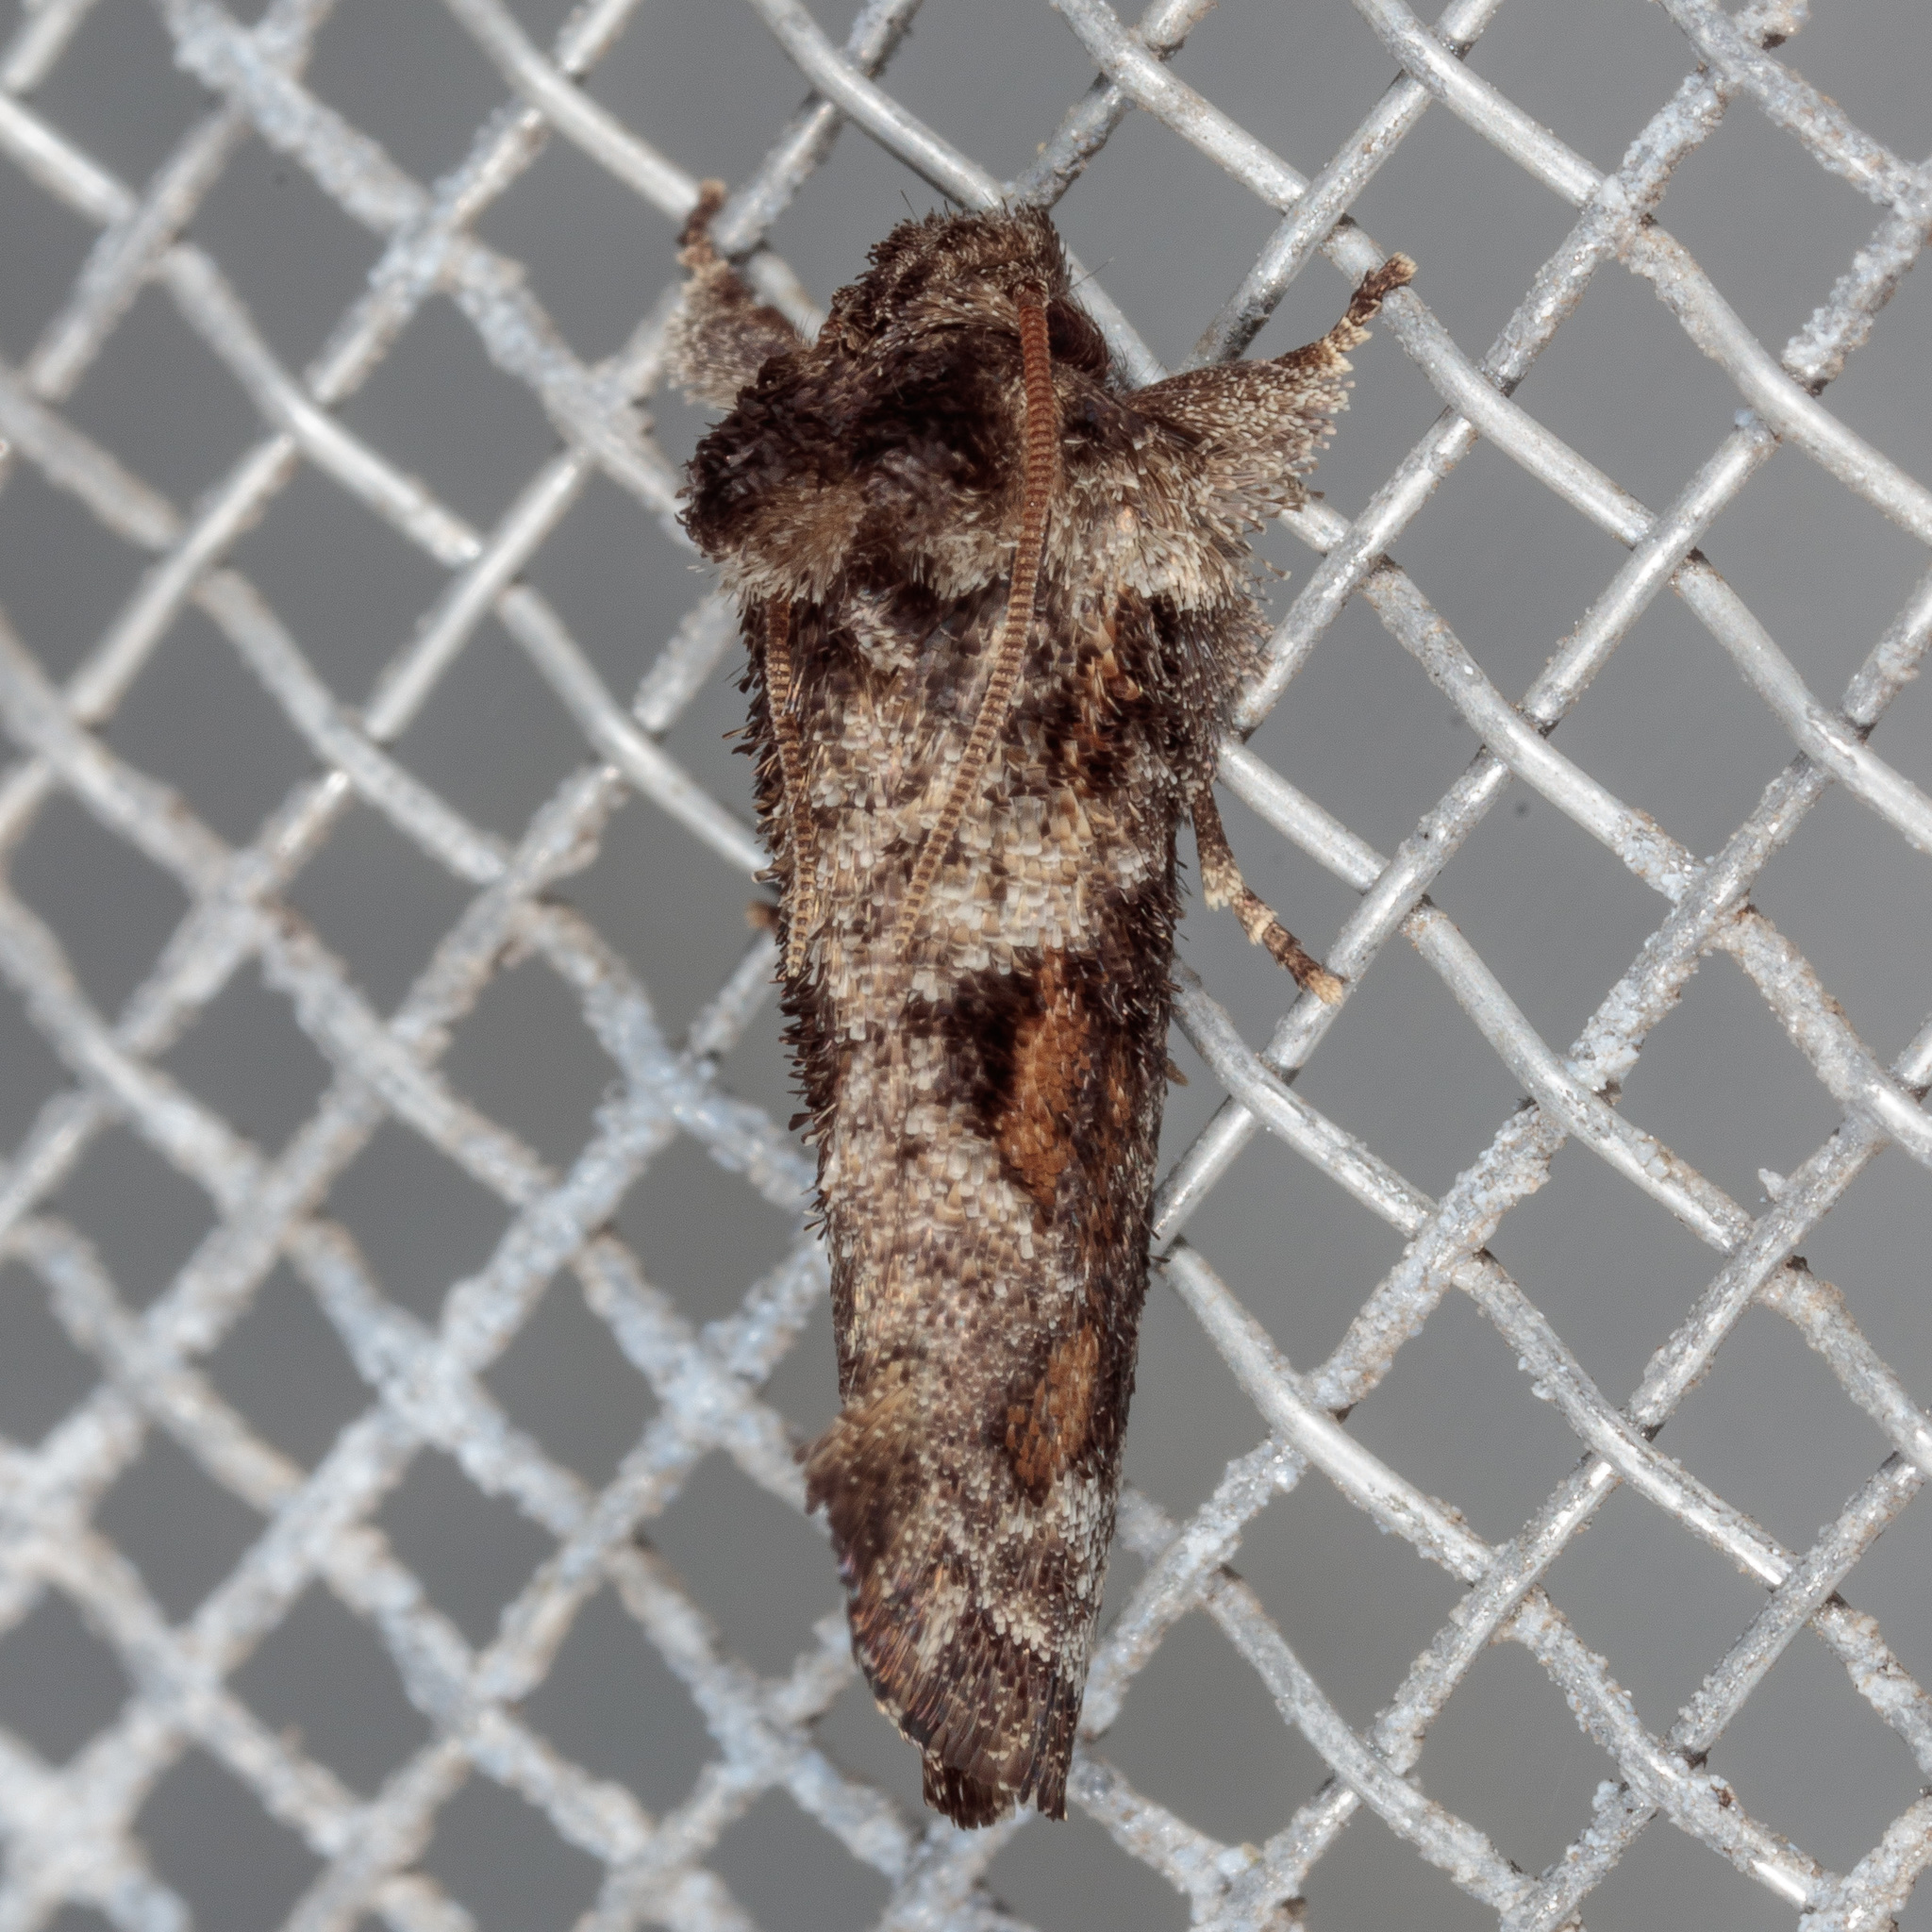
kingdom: Animalia
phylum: Arthropoda
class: Insecta
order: Lepidoptera
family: Tineidae
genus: Acrolophus
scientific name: Acrolophus piger
